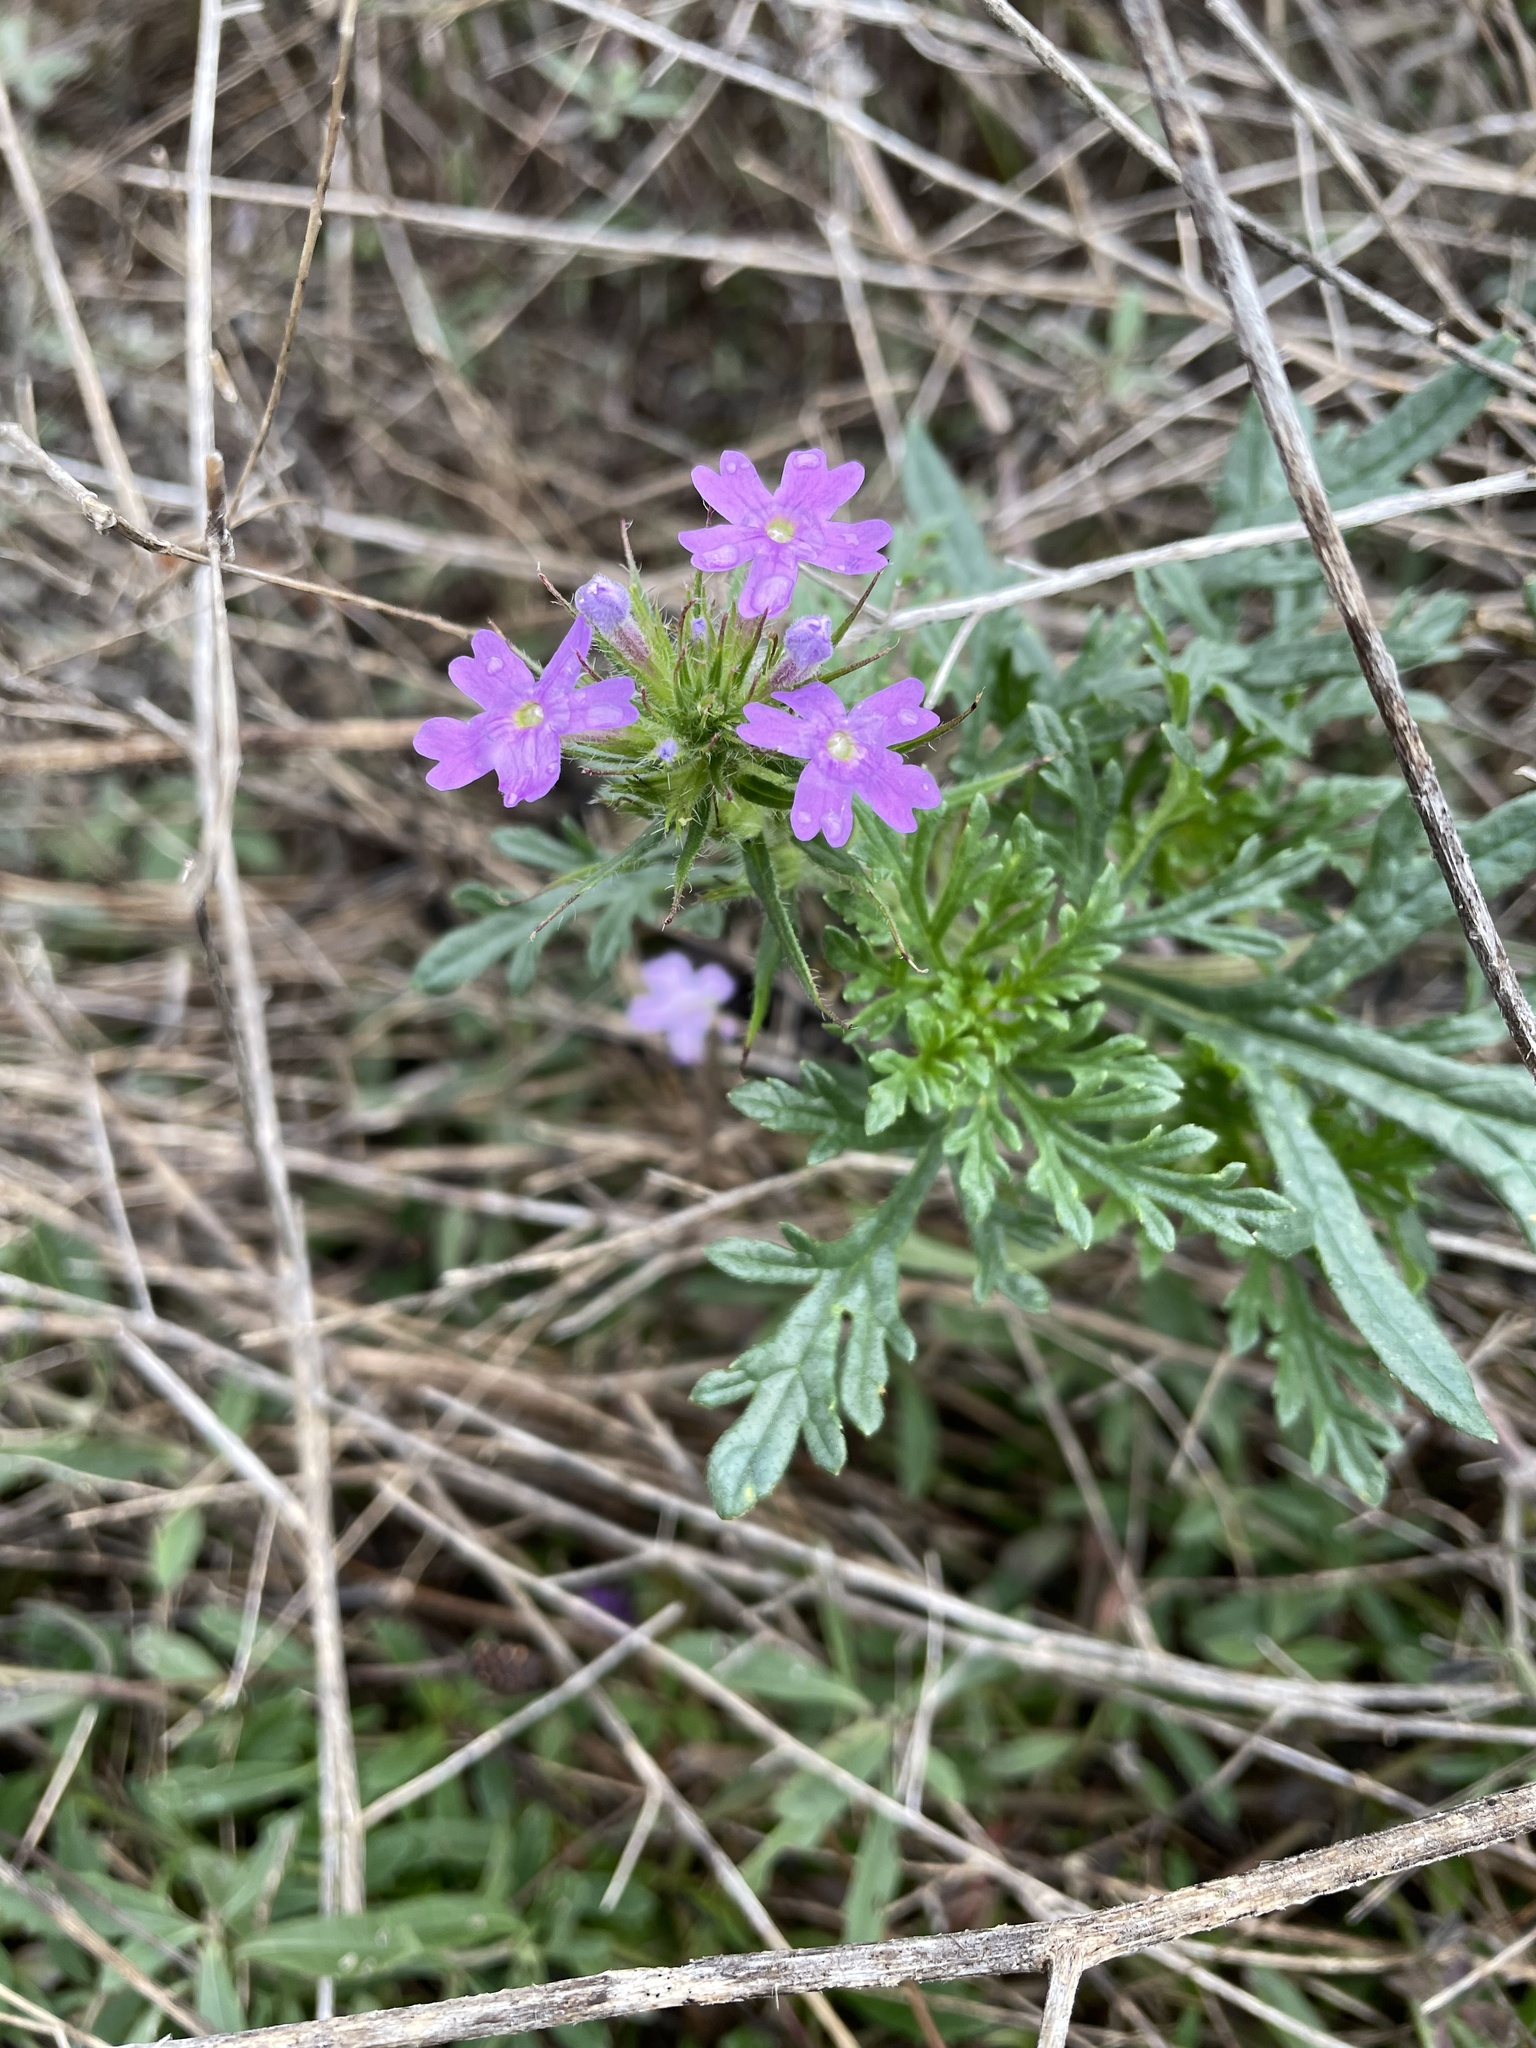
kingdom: Plantae
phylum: Tracheophyta
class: Magnoliopsida
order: Lamiales
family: Verbenaceae
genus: Verbena
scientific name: Verbena bipinnatifida
